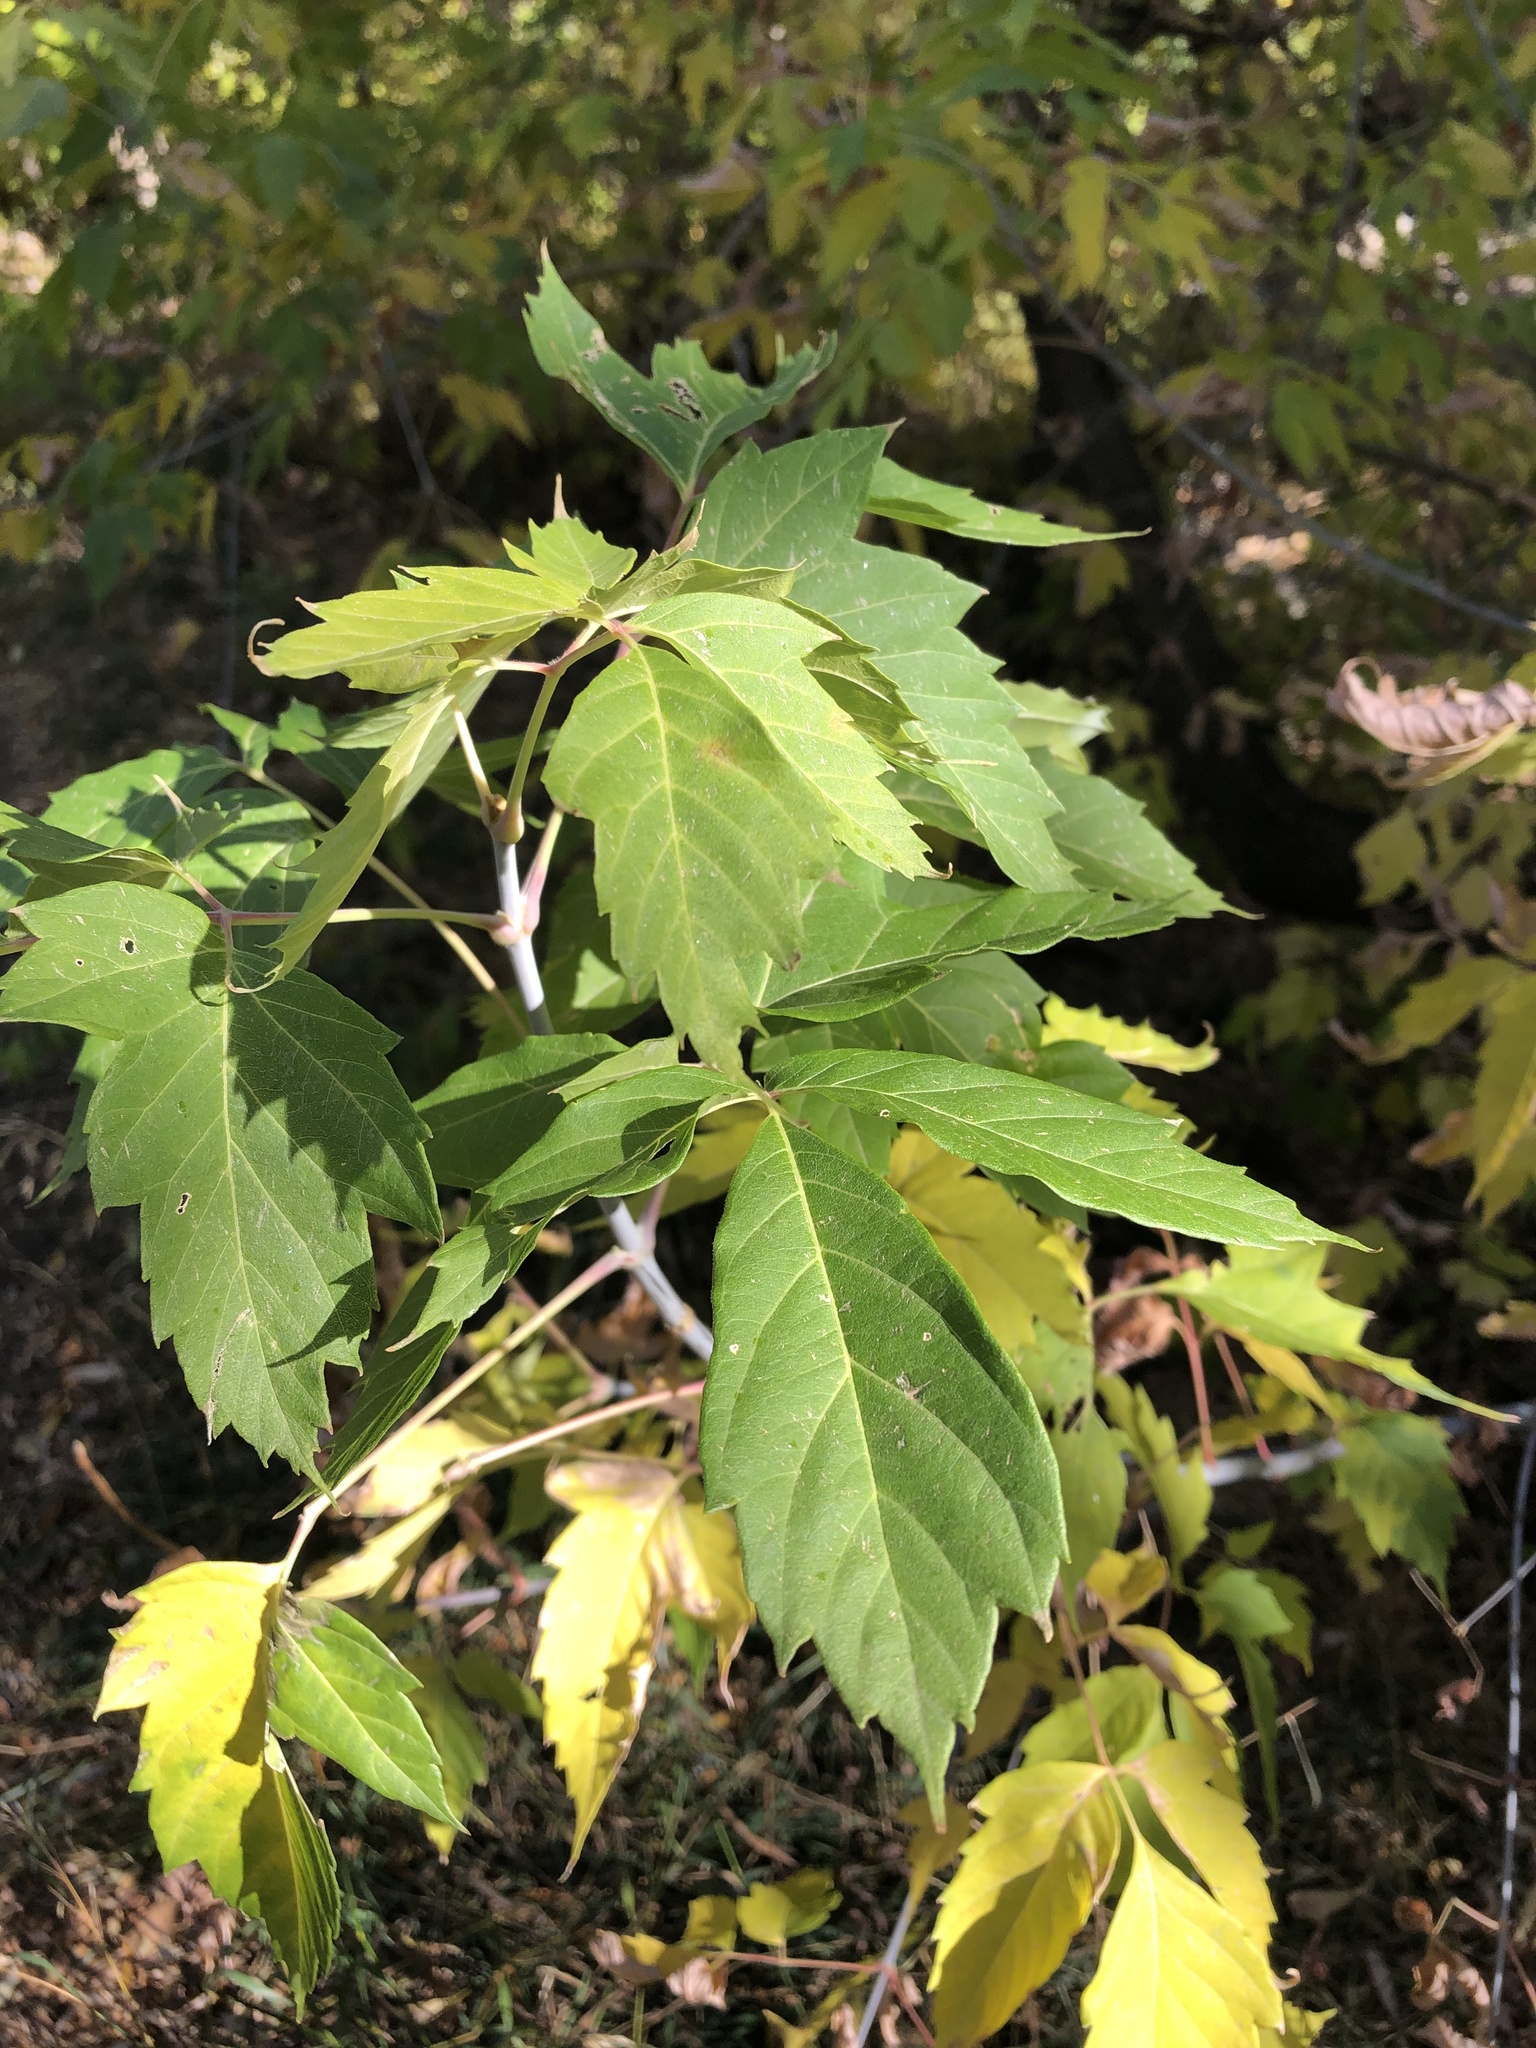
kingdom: Plantae
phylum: Tracheophyta
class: Magnoliopsida
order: Sapindales
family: Sapindaceae
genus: Acer
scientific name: Acer negundo
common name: Ashleaf maple
